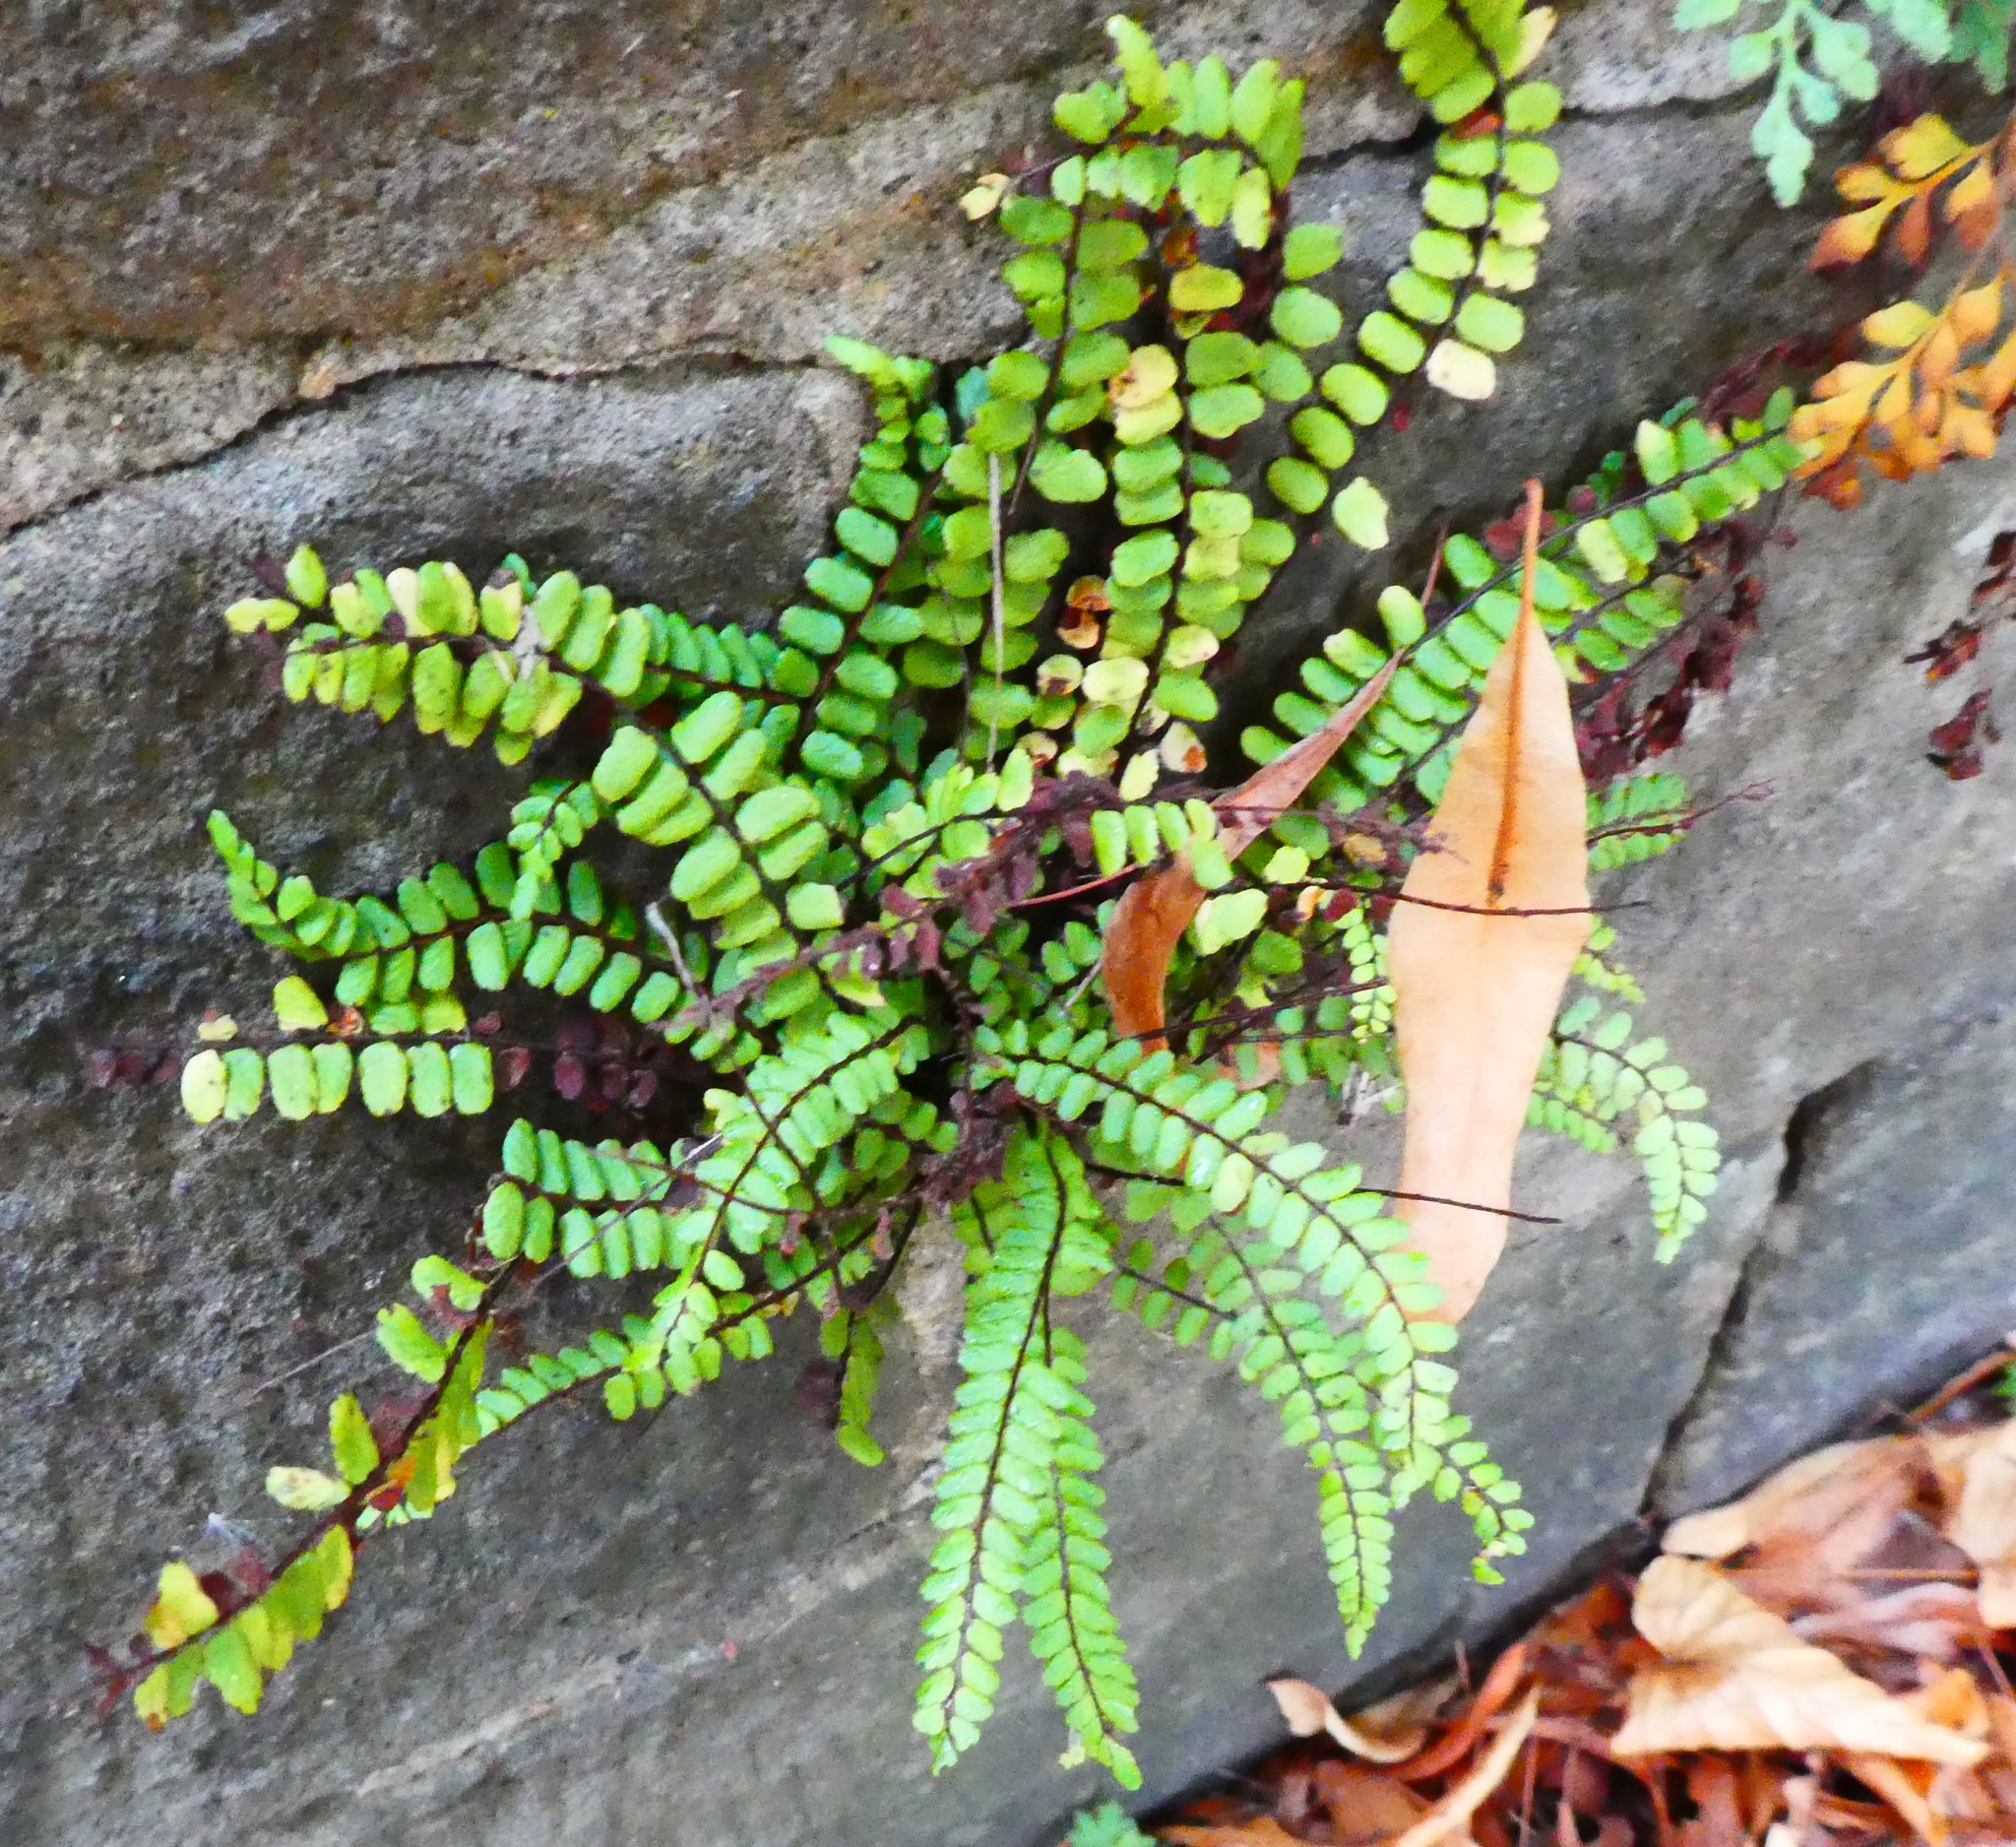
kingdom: Plantae
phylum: Tracheophyta
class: Polypodiopsida
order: Polypodiales
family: Aspleniaceae
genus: Asplenium
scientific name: Asplenium trichomanes
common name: Maidenhair spleenwort
